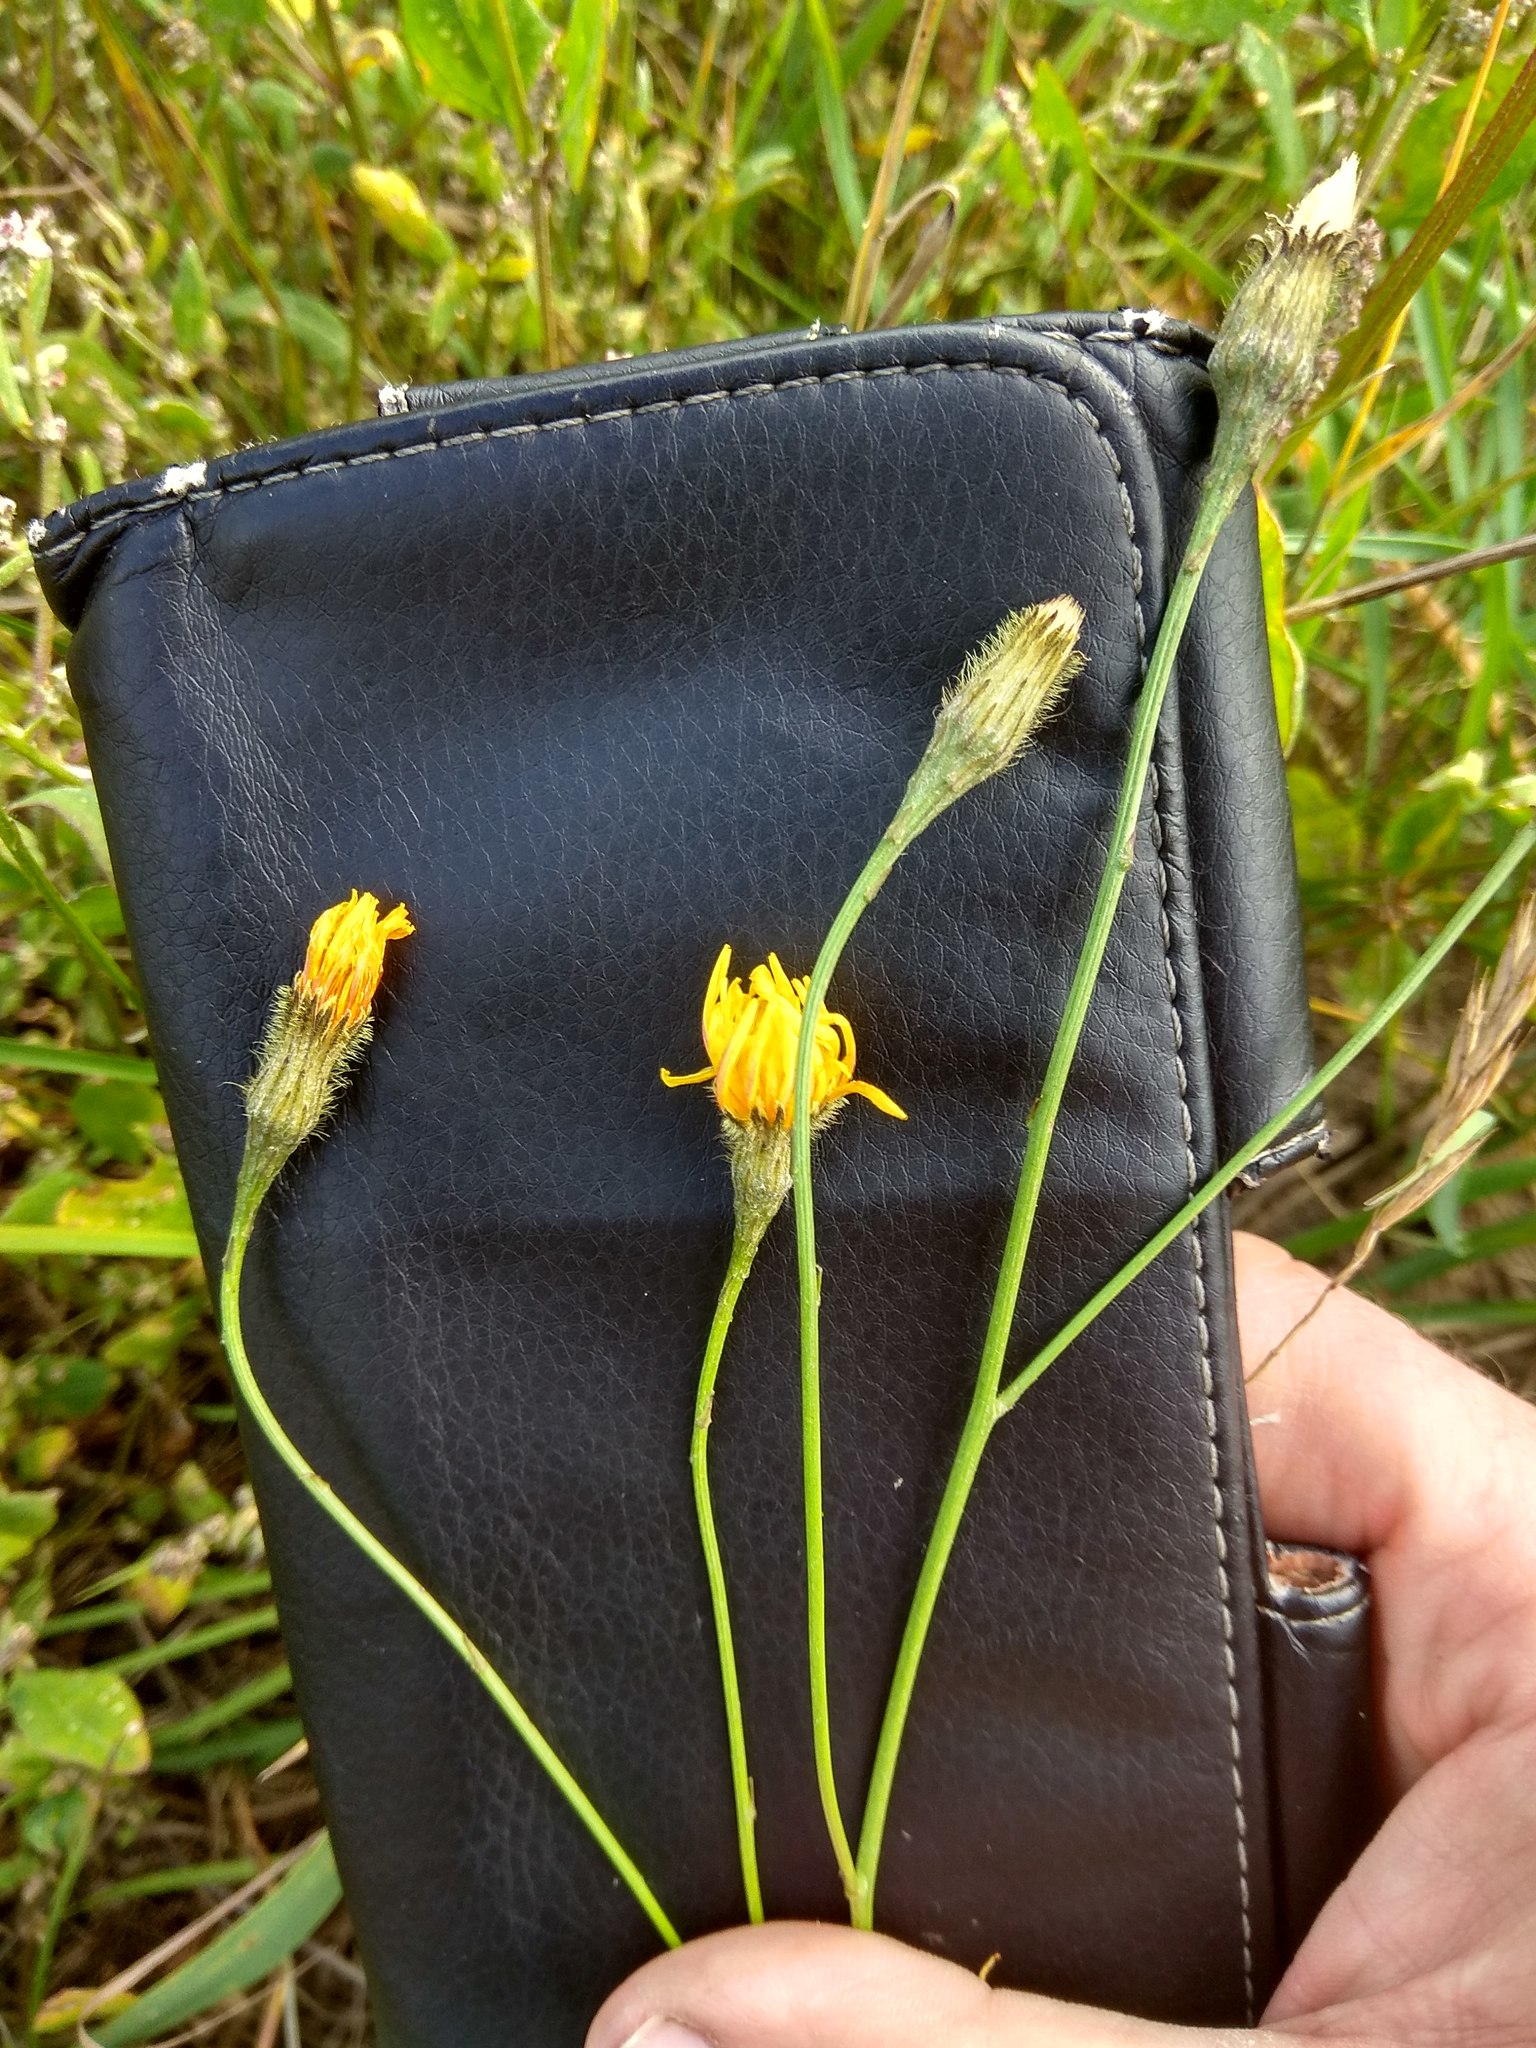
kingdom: Plantae
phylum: Tracheophyta
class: Magnoliopsida
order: Asterales
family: Asteraceae
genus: Scorzoneroides
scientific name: Scorzoneroides autumnalis
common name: Autumn hawkbit
